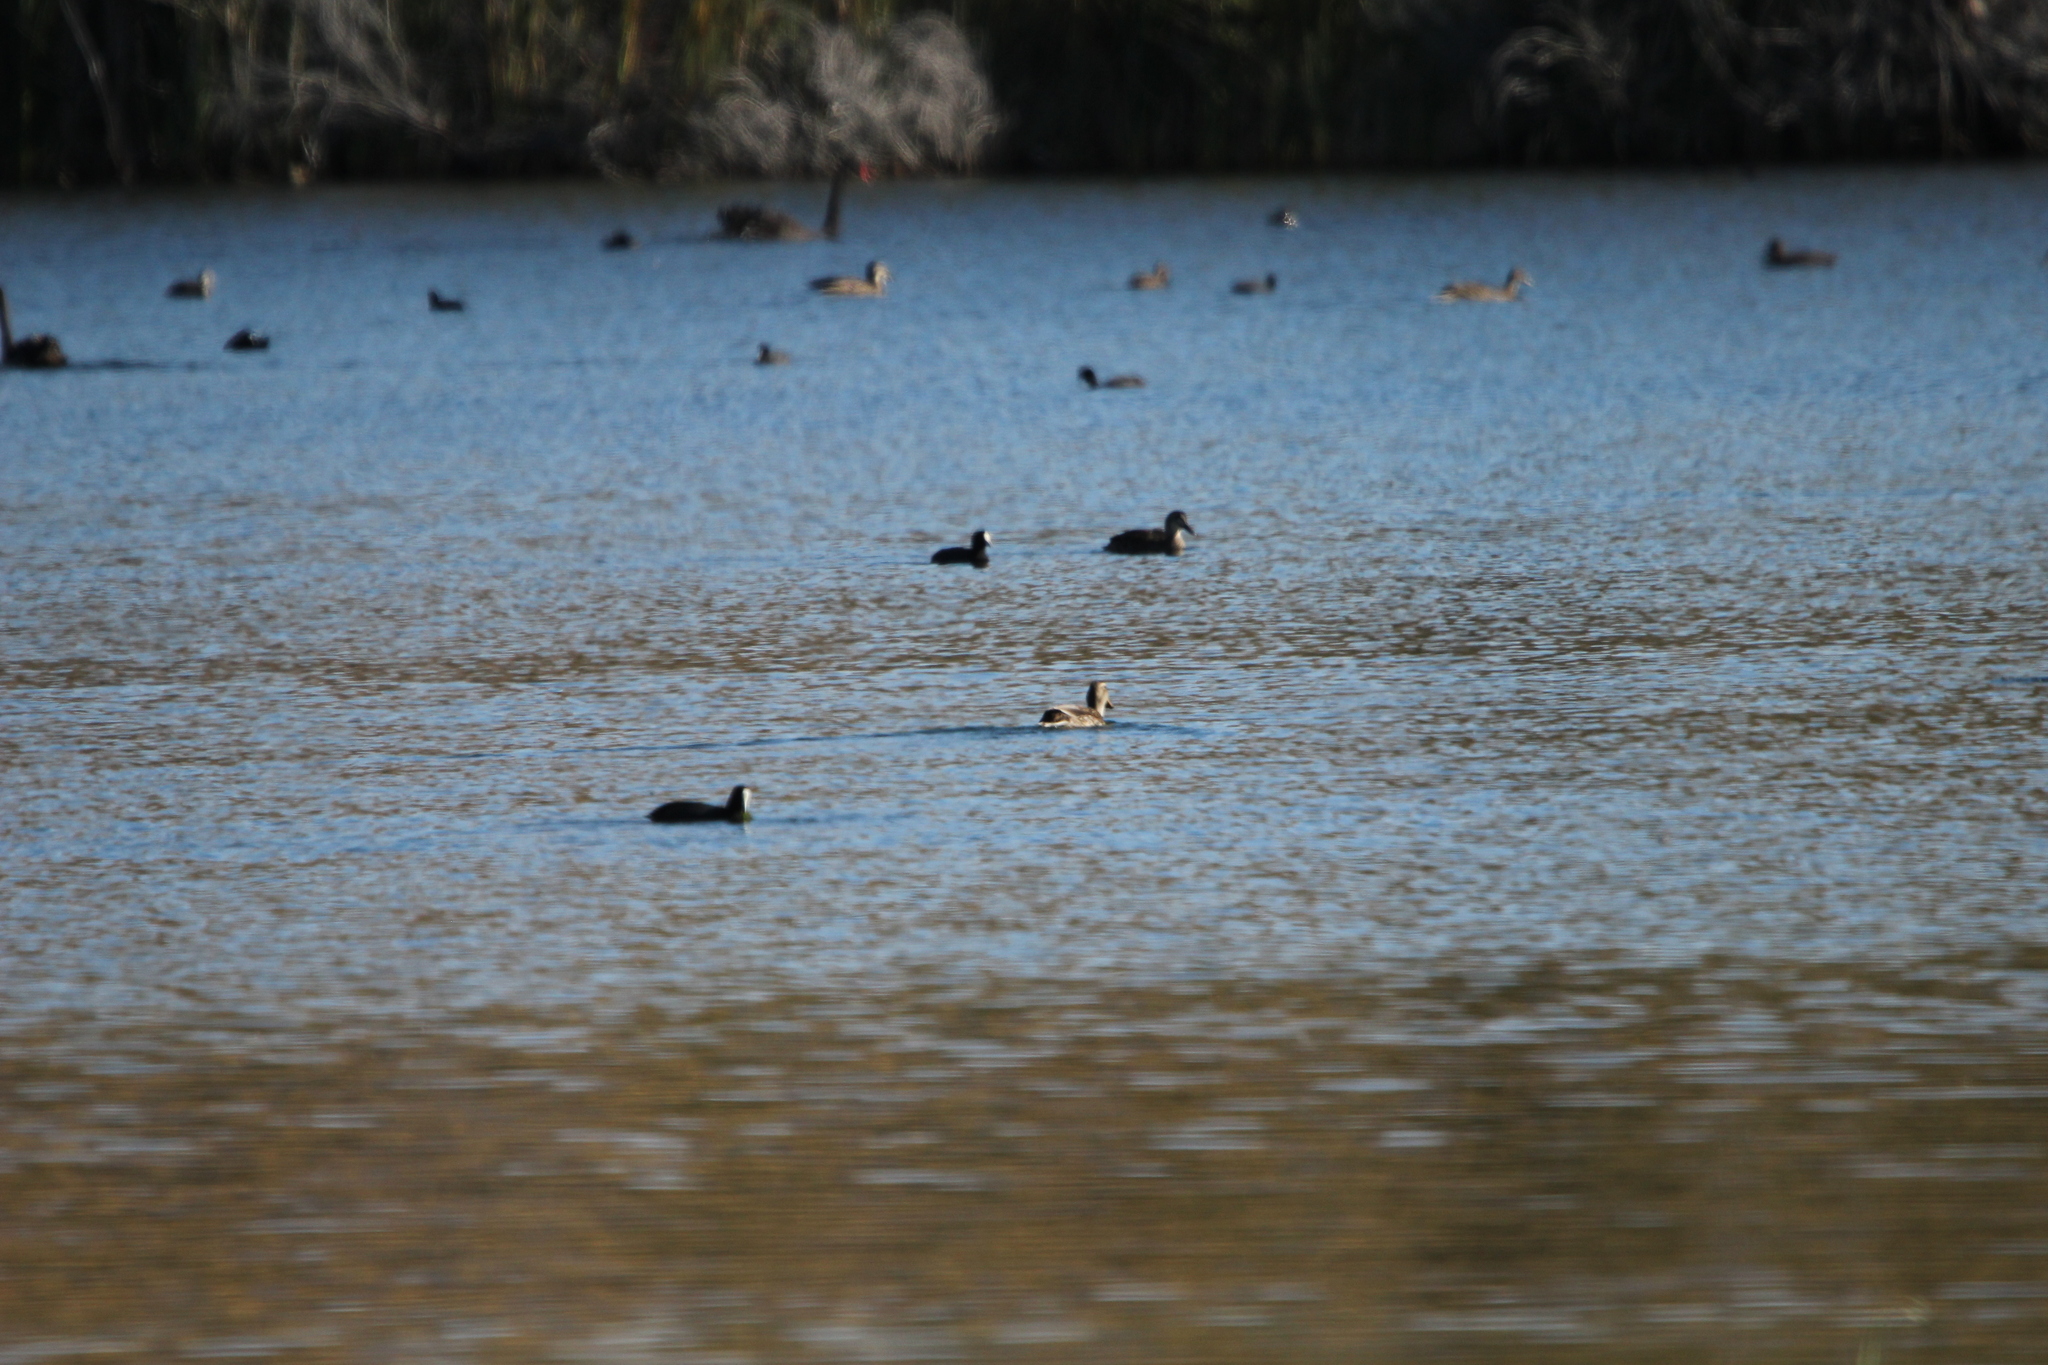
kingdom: Animalia
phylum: Chordata
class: Aves
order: Anseriformes
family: Anatidae
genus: Anas
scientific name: Anas
